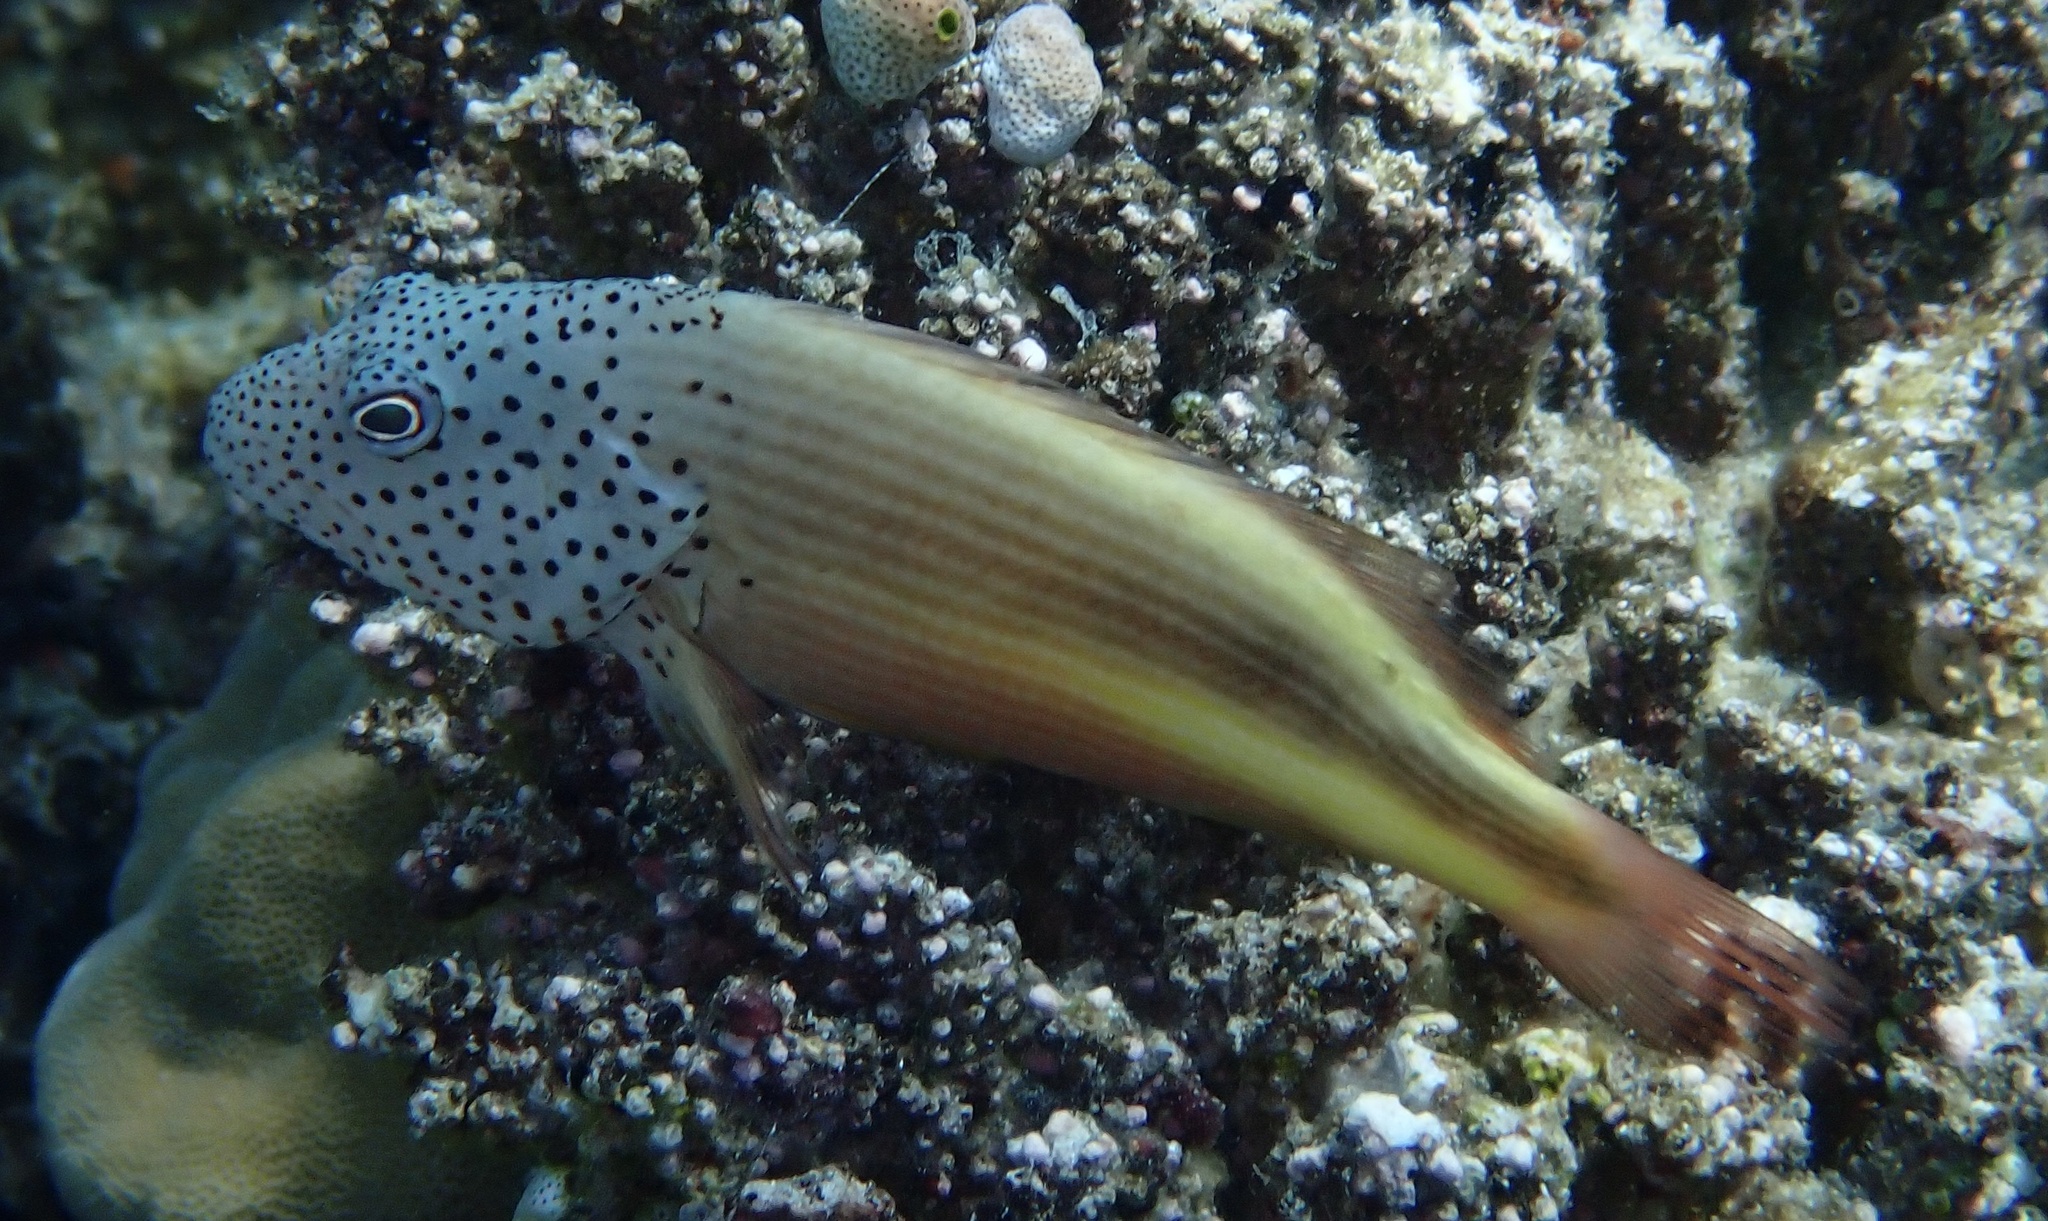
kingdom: Animalia
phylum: Chordata
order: Perciformes
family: Cirrhitidae
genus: Paracirrhites
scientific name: Paracirrhites forsteri
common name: Freckled hawkfish
